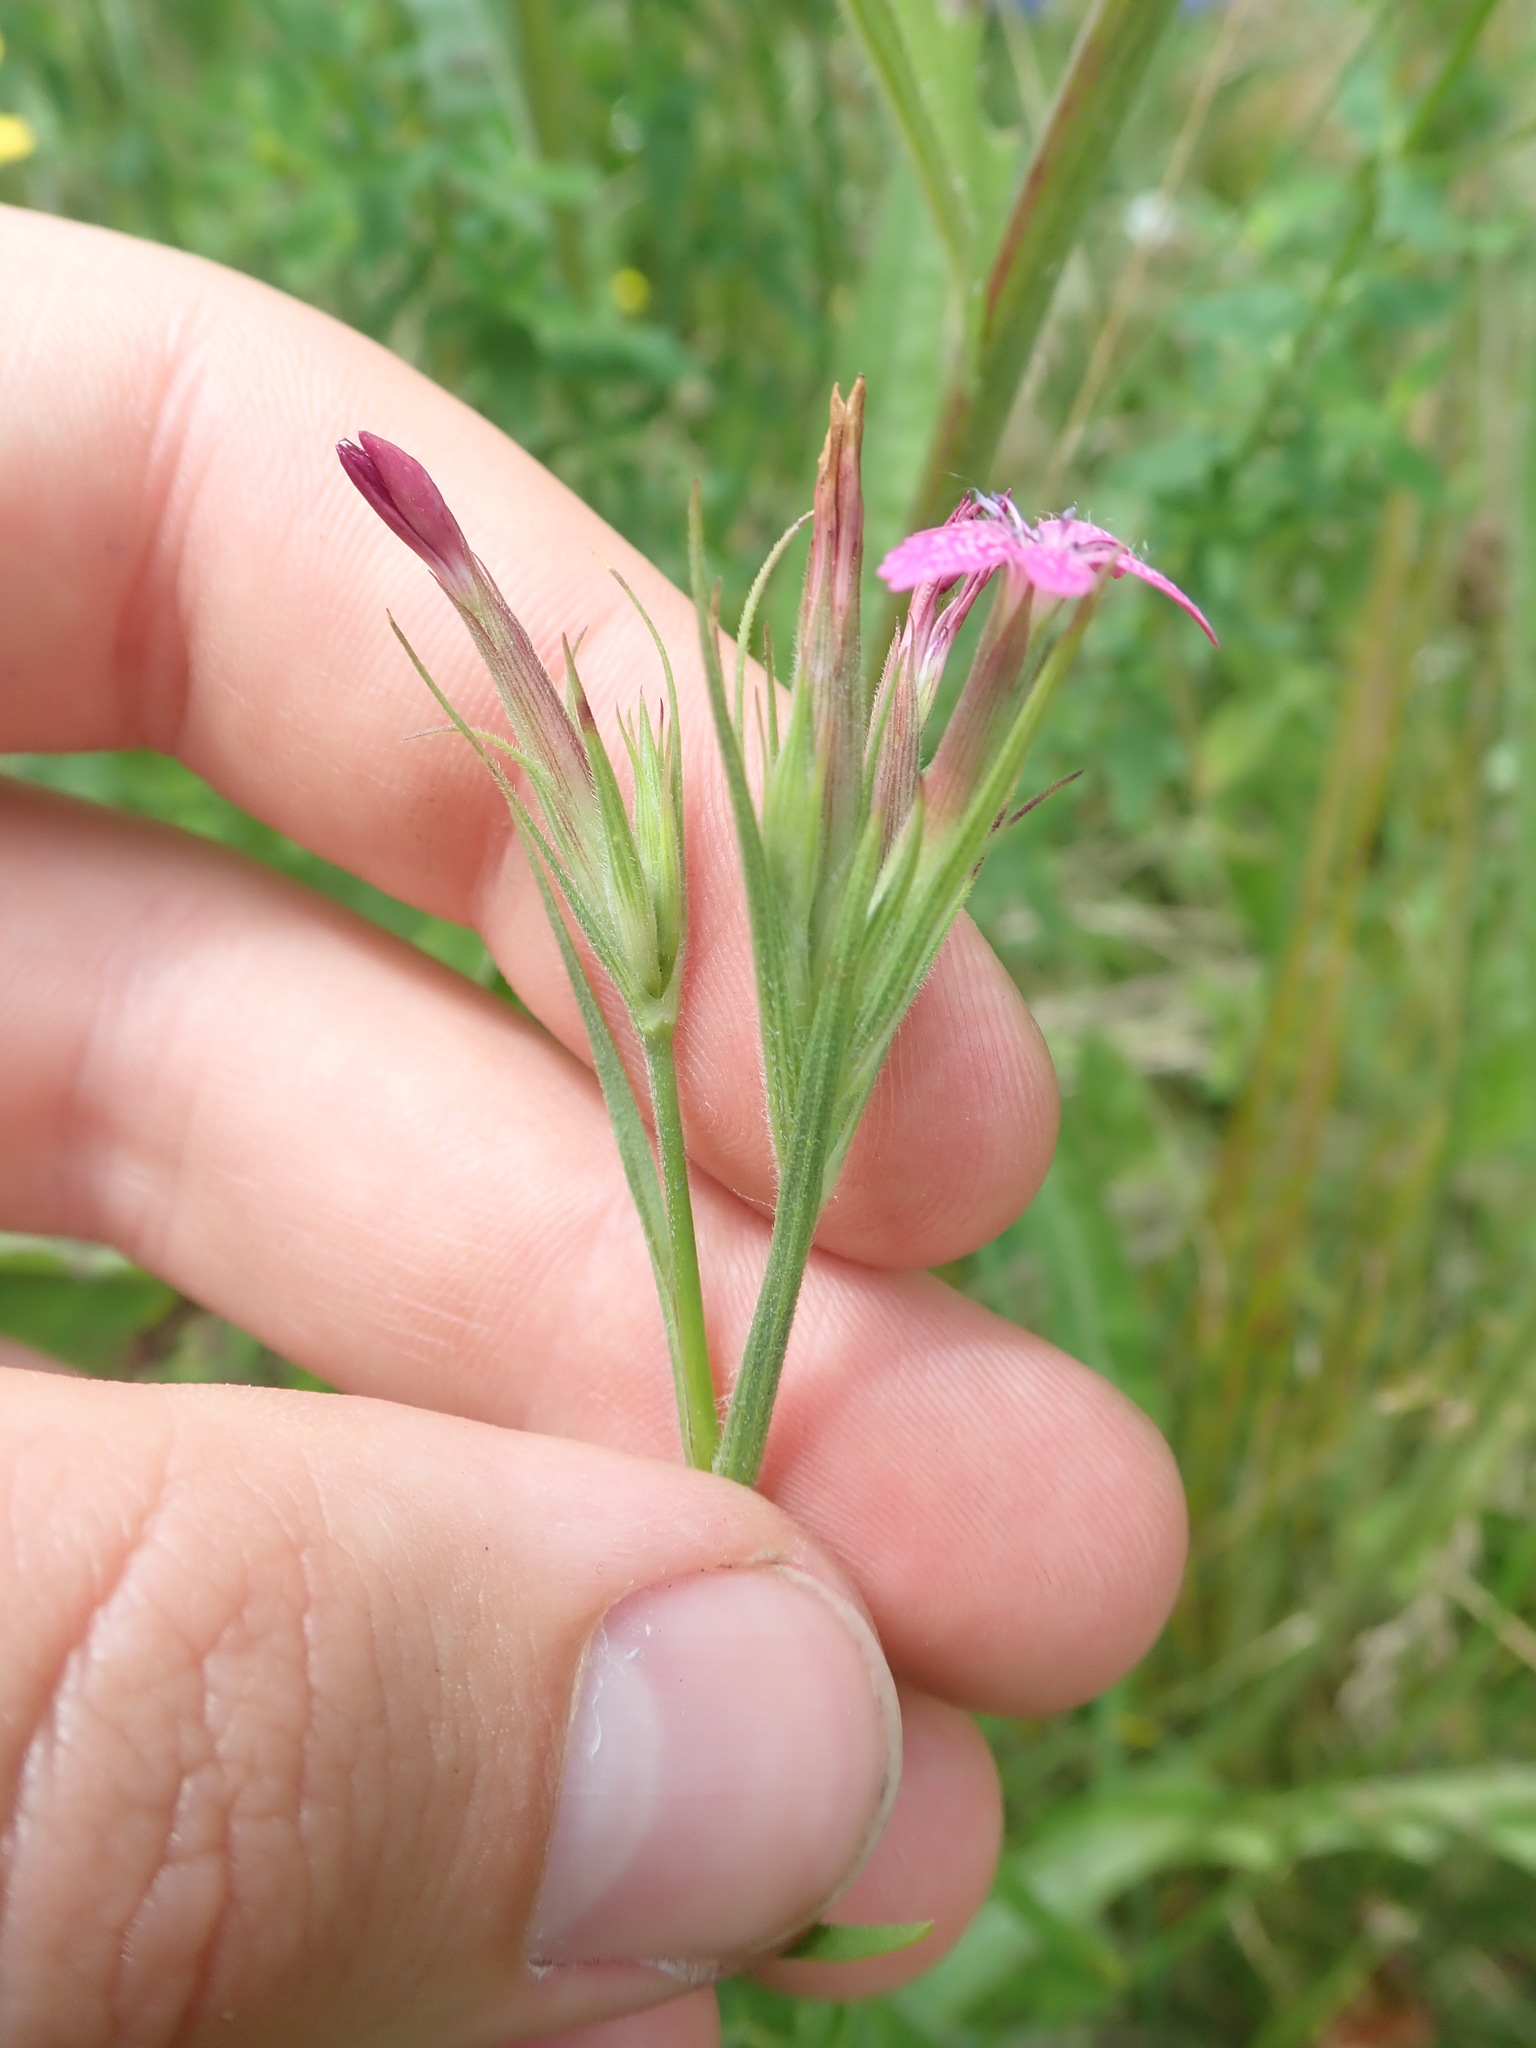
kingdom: Plantae
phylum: Tracheophyta
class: Magnoliopsida
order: Caryophyllales
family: Caryophyllaceae
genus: Dianthus
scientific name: Dianthus armeria
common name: Deptford pink
